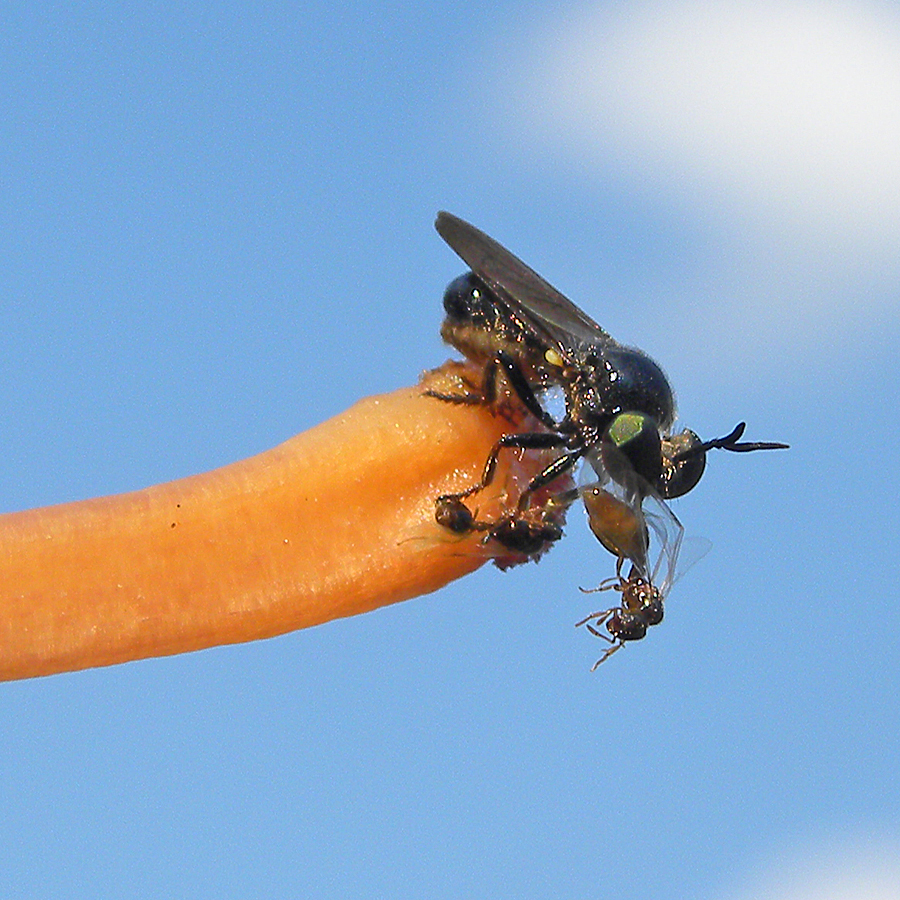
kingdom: Animalia
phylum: Arthropoda
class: Insecta
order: Diptera
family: Asilidae
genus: Cerotainia
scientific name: Cerotainia macrocera
